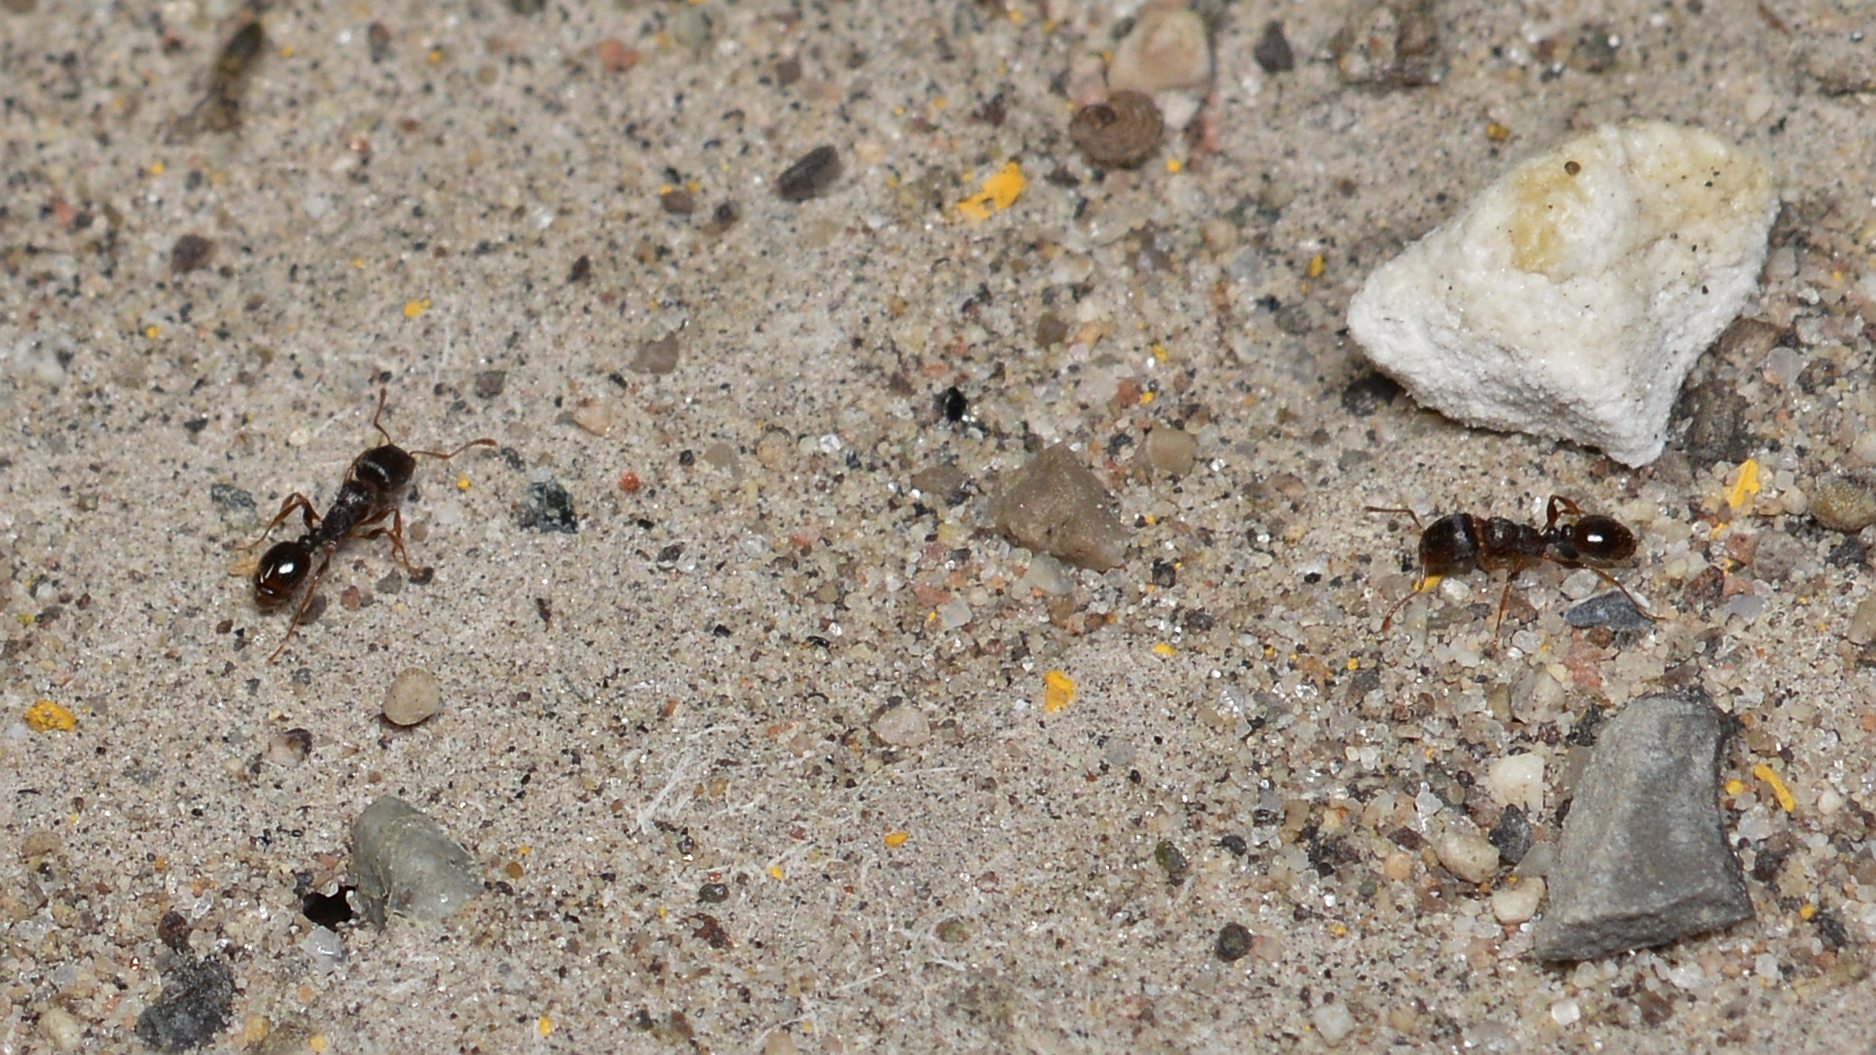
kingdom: Animalia
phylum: Arthropoda
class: Insecta
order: Hymenoptera
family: Formicidae
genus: Tetramorium
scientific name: Tetramorium immigrans
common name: Pavement ant
